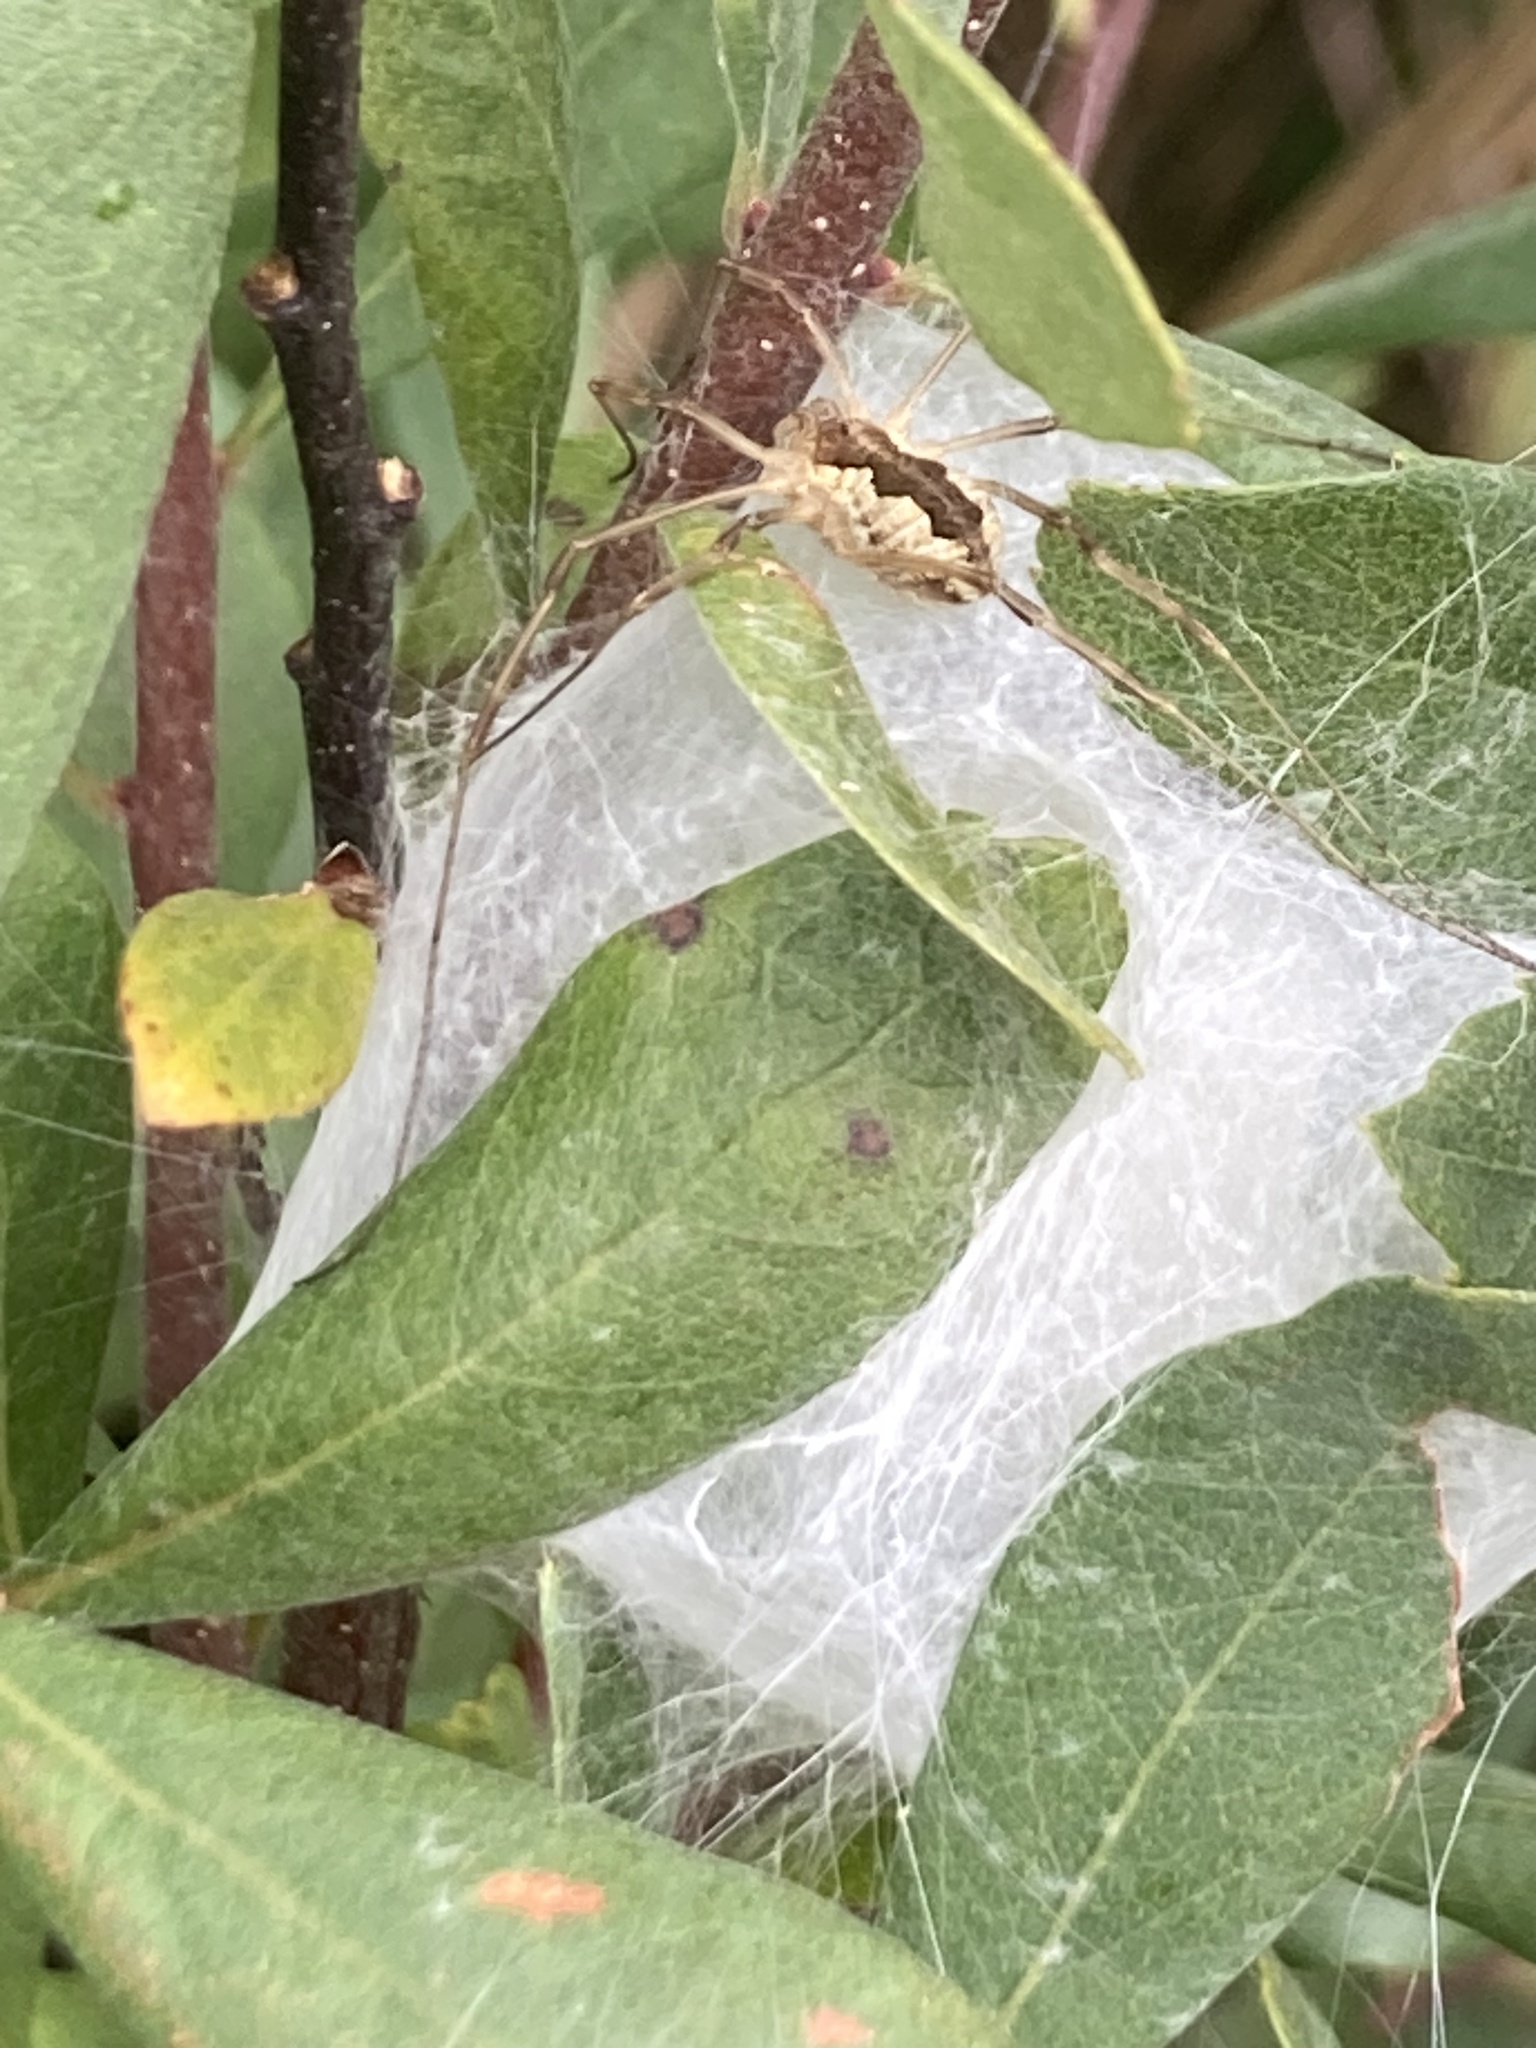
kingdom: Animalia
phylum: Arthropoda
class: Arachnida
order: Opiliones
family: Phalangiidae
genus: Mitopus
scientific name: Mitopus morio
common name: Saddleback harvestman
